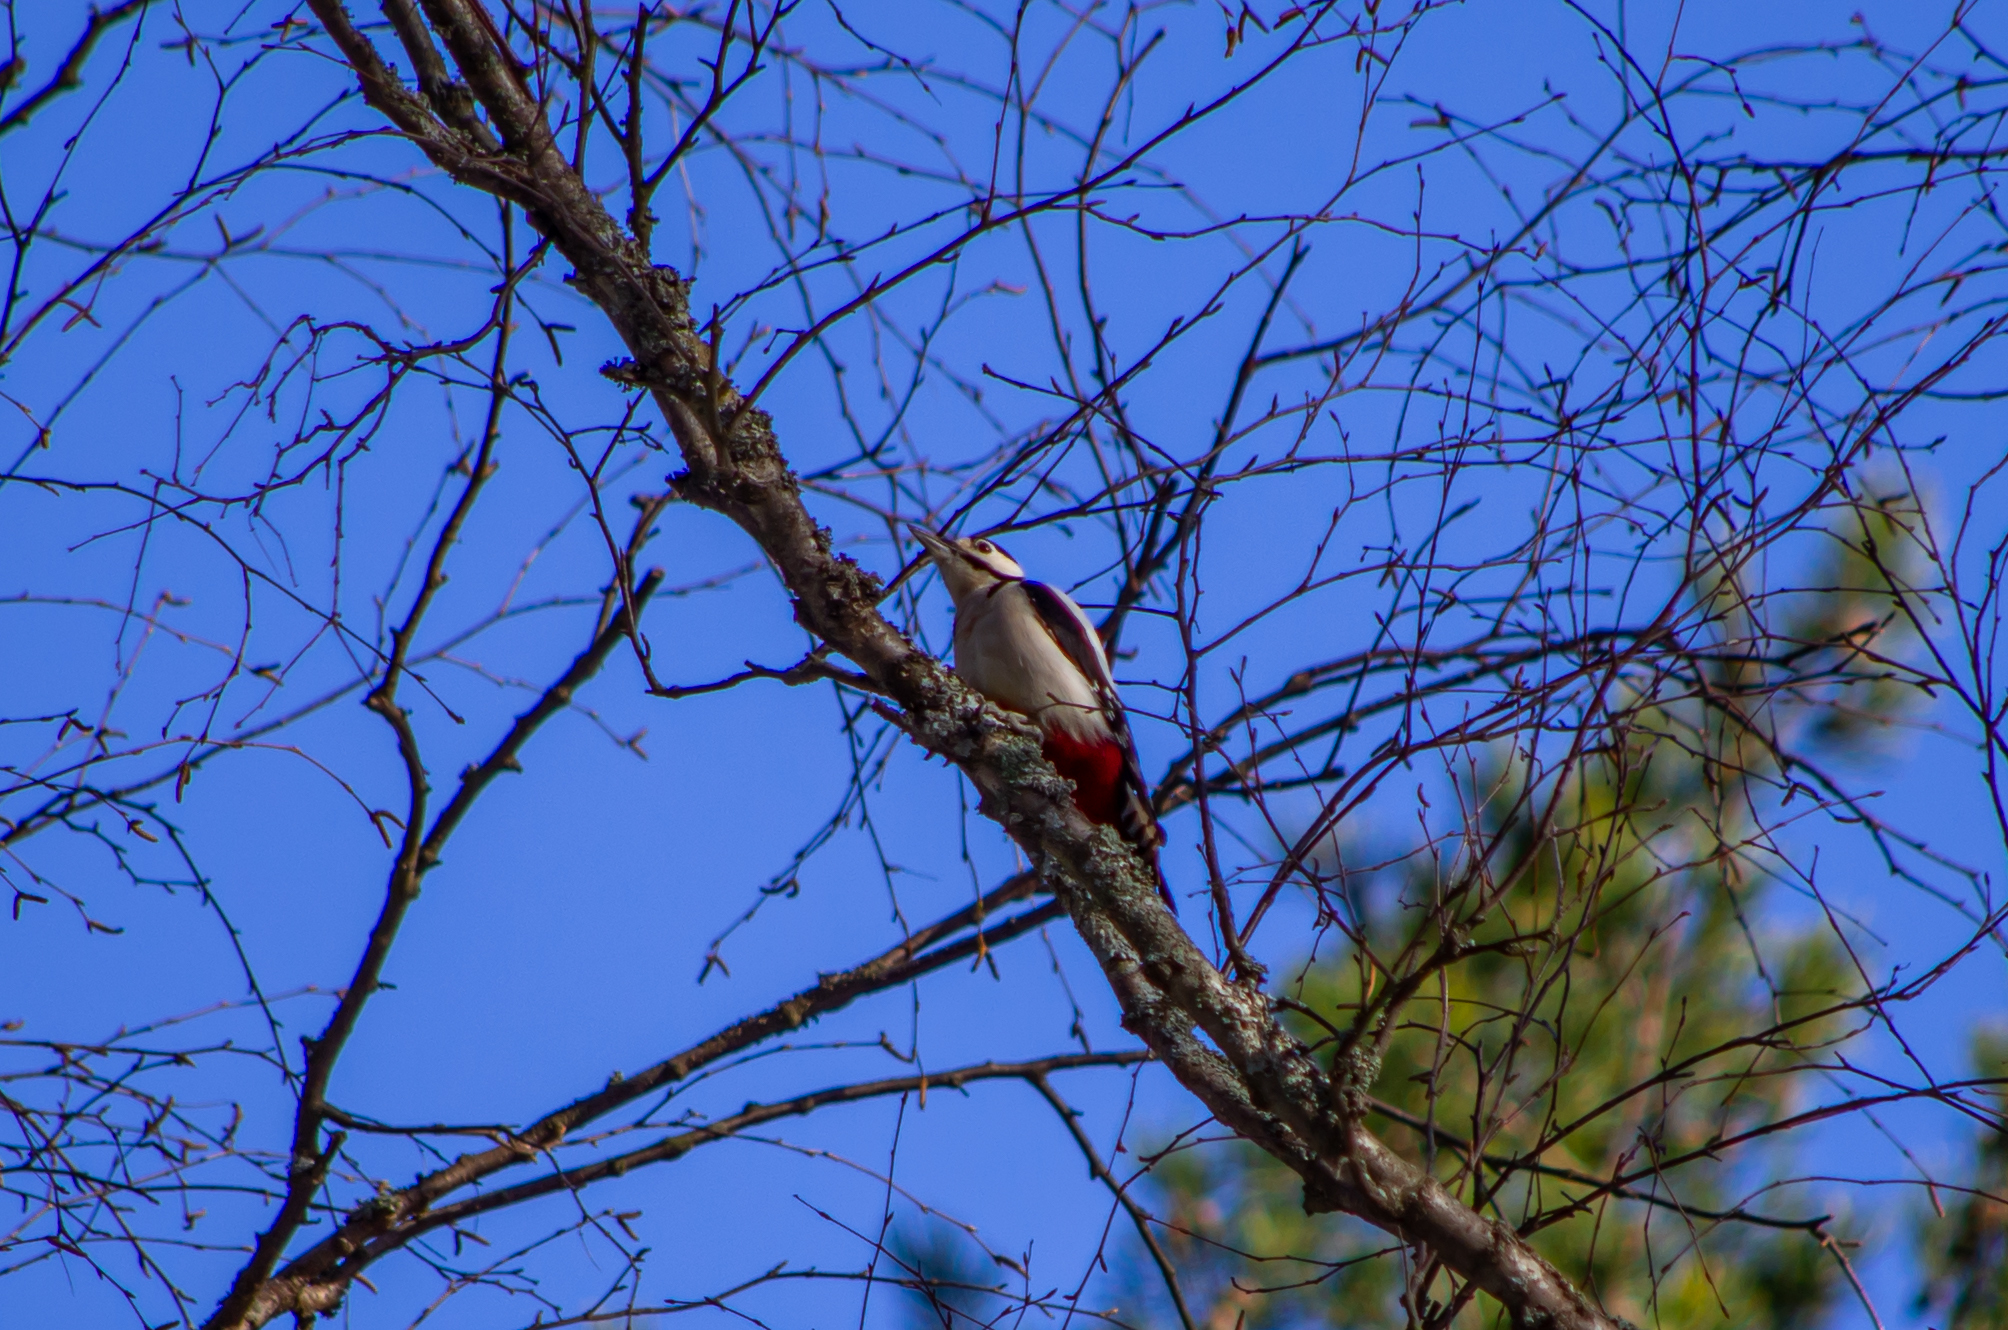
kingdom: Animalia
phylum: Chordata
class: Aves
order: Piciformes
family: Picidae
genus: Dendrocopos
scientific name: Dendrocopos major
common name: Great spotted woodpecker
